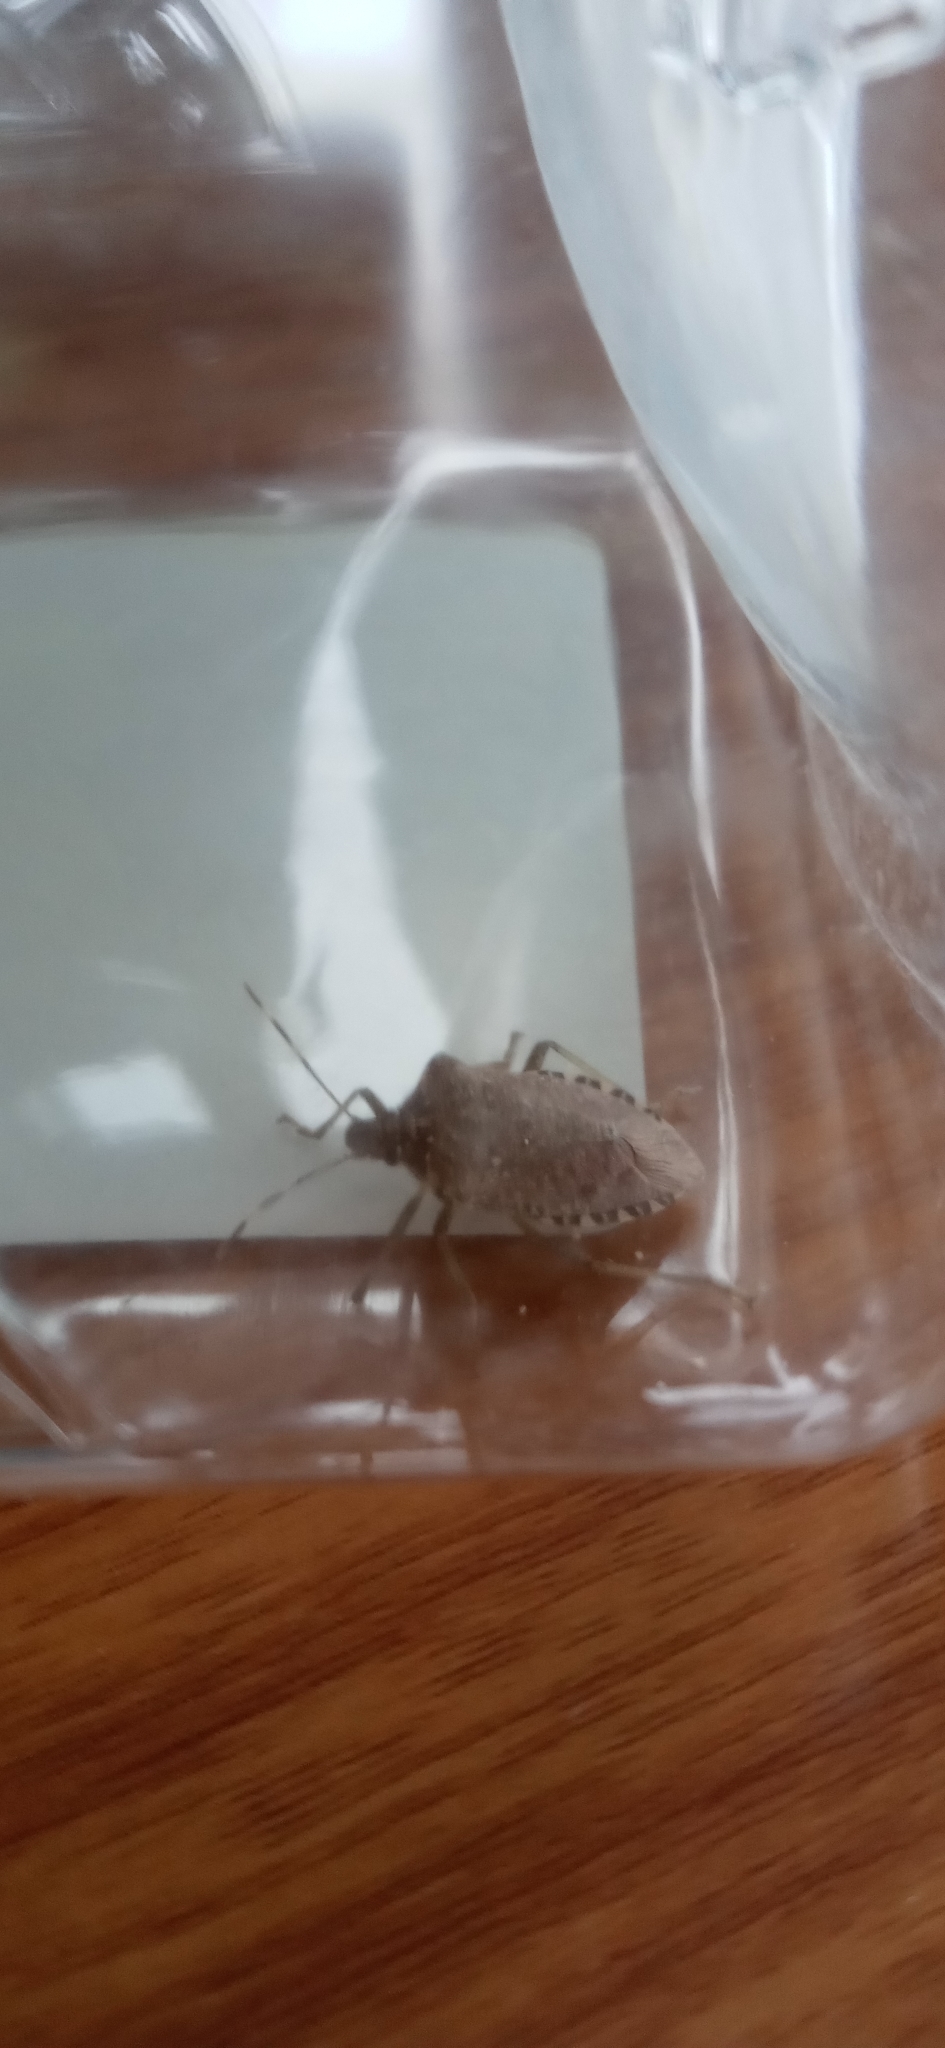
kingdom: Animalia
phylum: Arthropoda
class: Insecta
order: Hemiptera
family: Pentatomidae
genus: Halyomorpha
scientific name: Halyomorpha halys
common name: Brown marmorated stink bug
